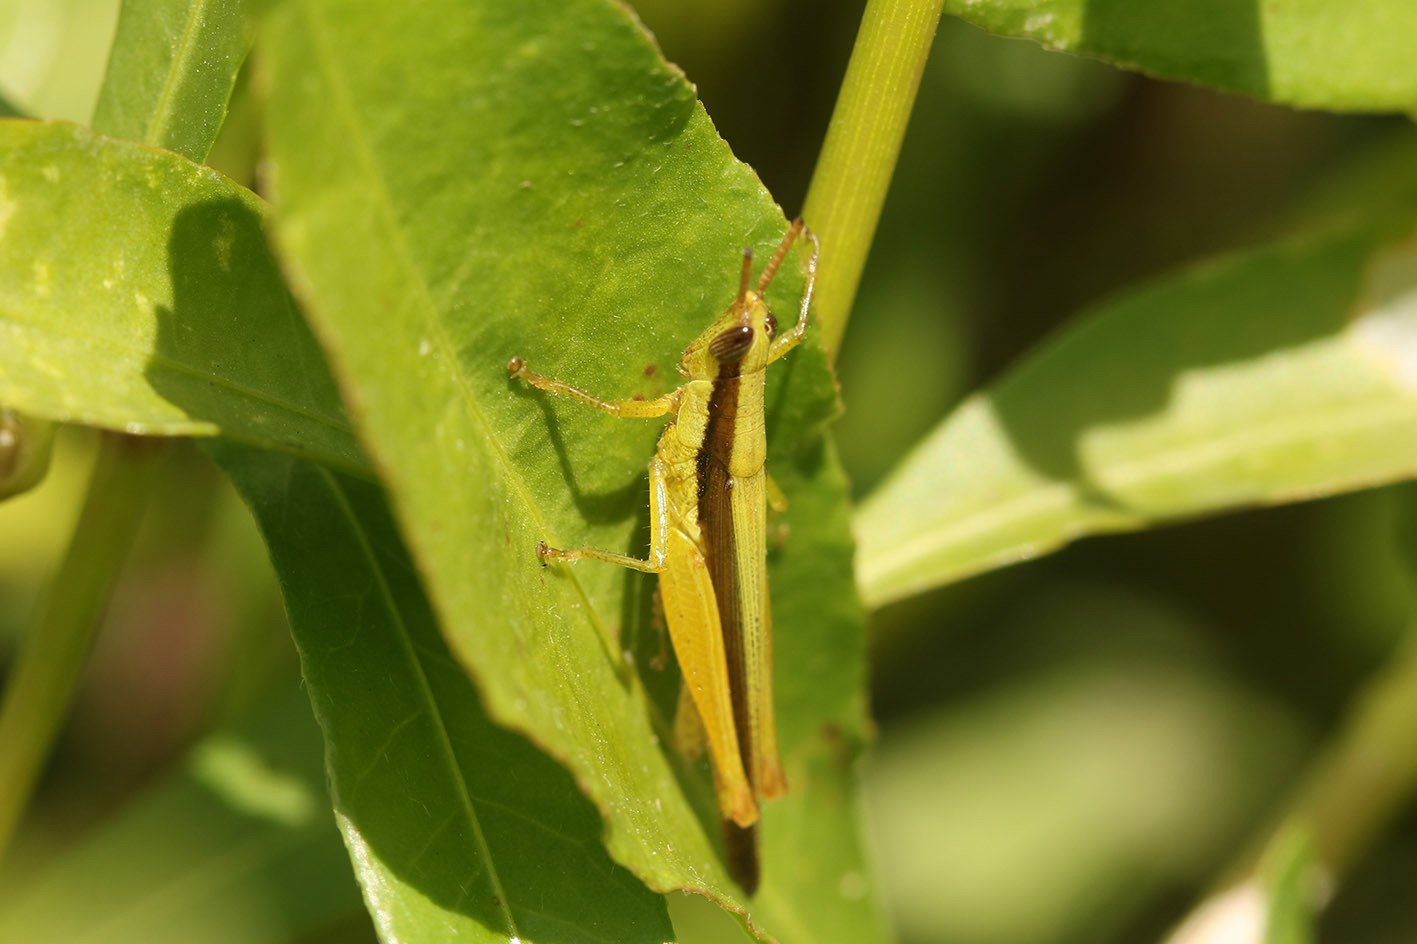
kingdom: Animalia
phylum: Arthropoda
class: Insecta
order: Orthoptera
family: Acrididae
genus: Stenopola
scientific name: Stenopola pallida
